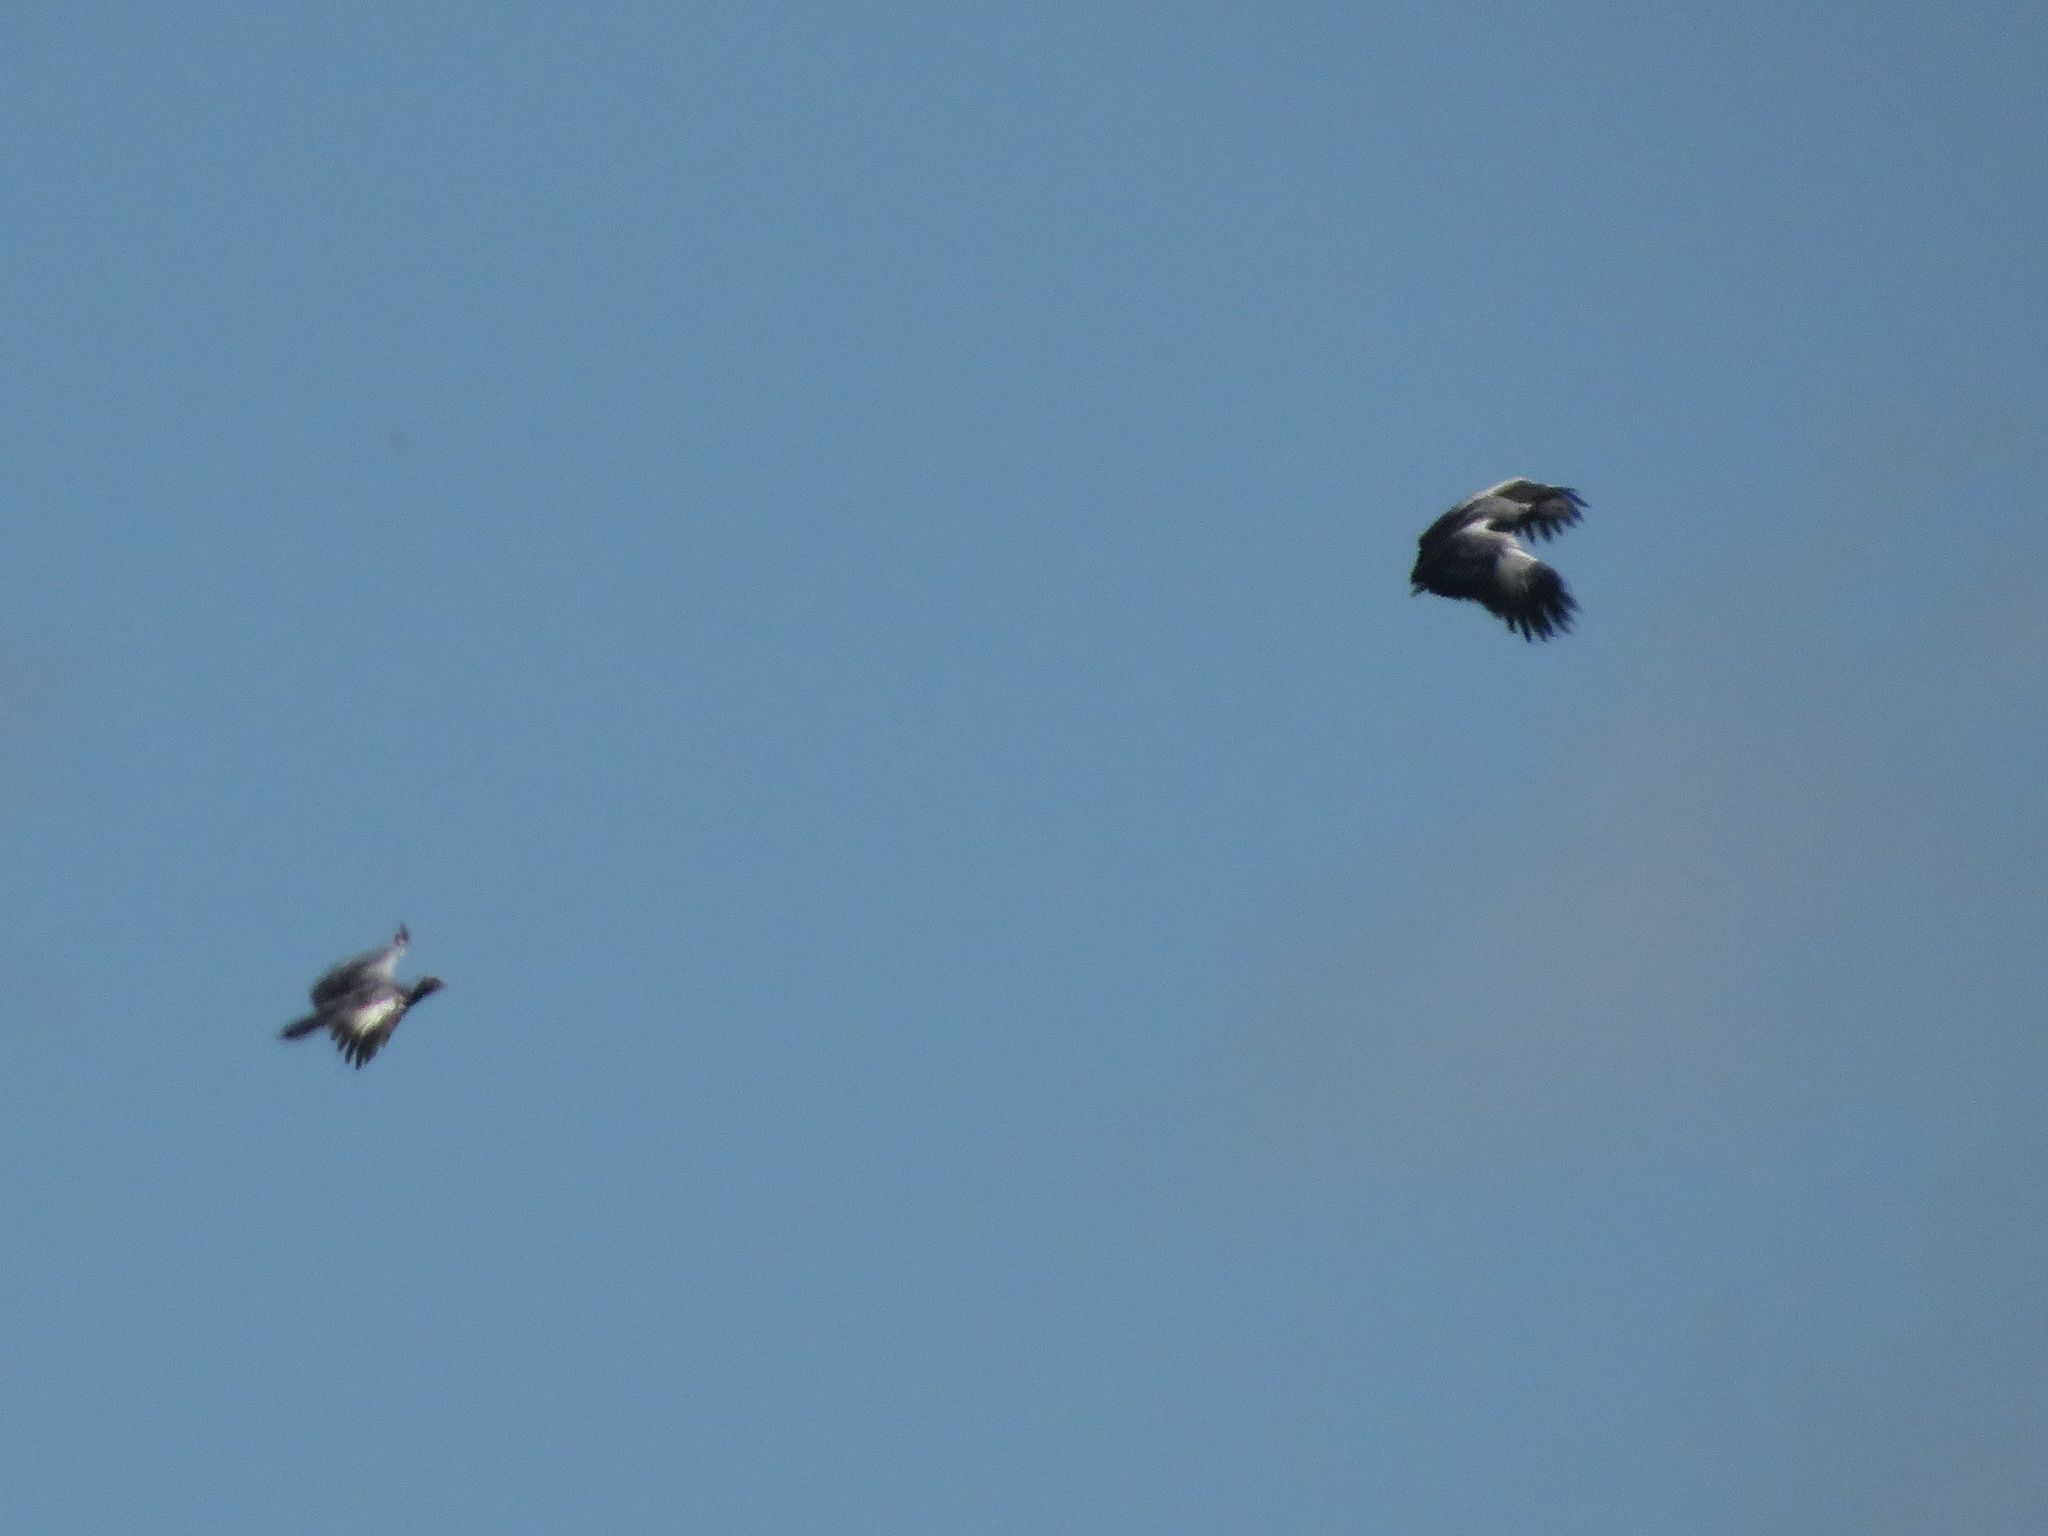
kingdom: Animalia
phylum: Chordata
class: Aves
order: Anseriformes
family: Anhimidae
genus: Chauna
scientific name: Chauna torquata
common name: Southern screamer
